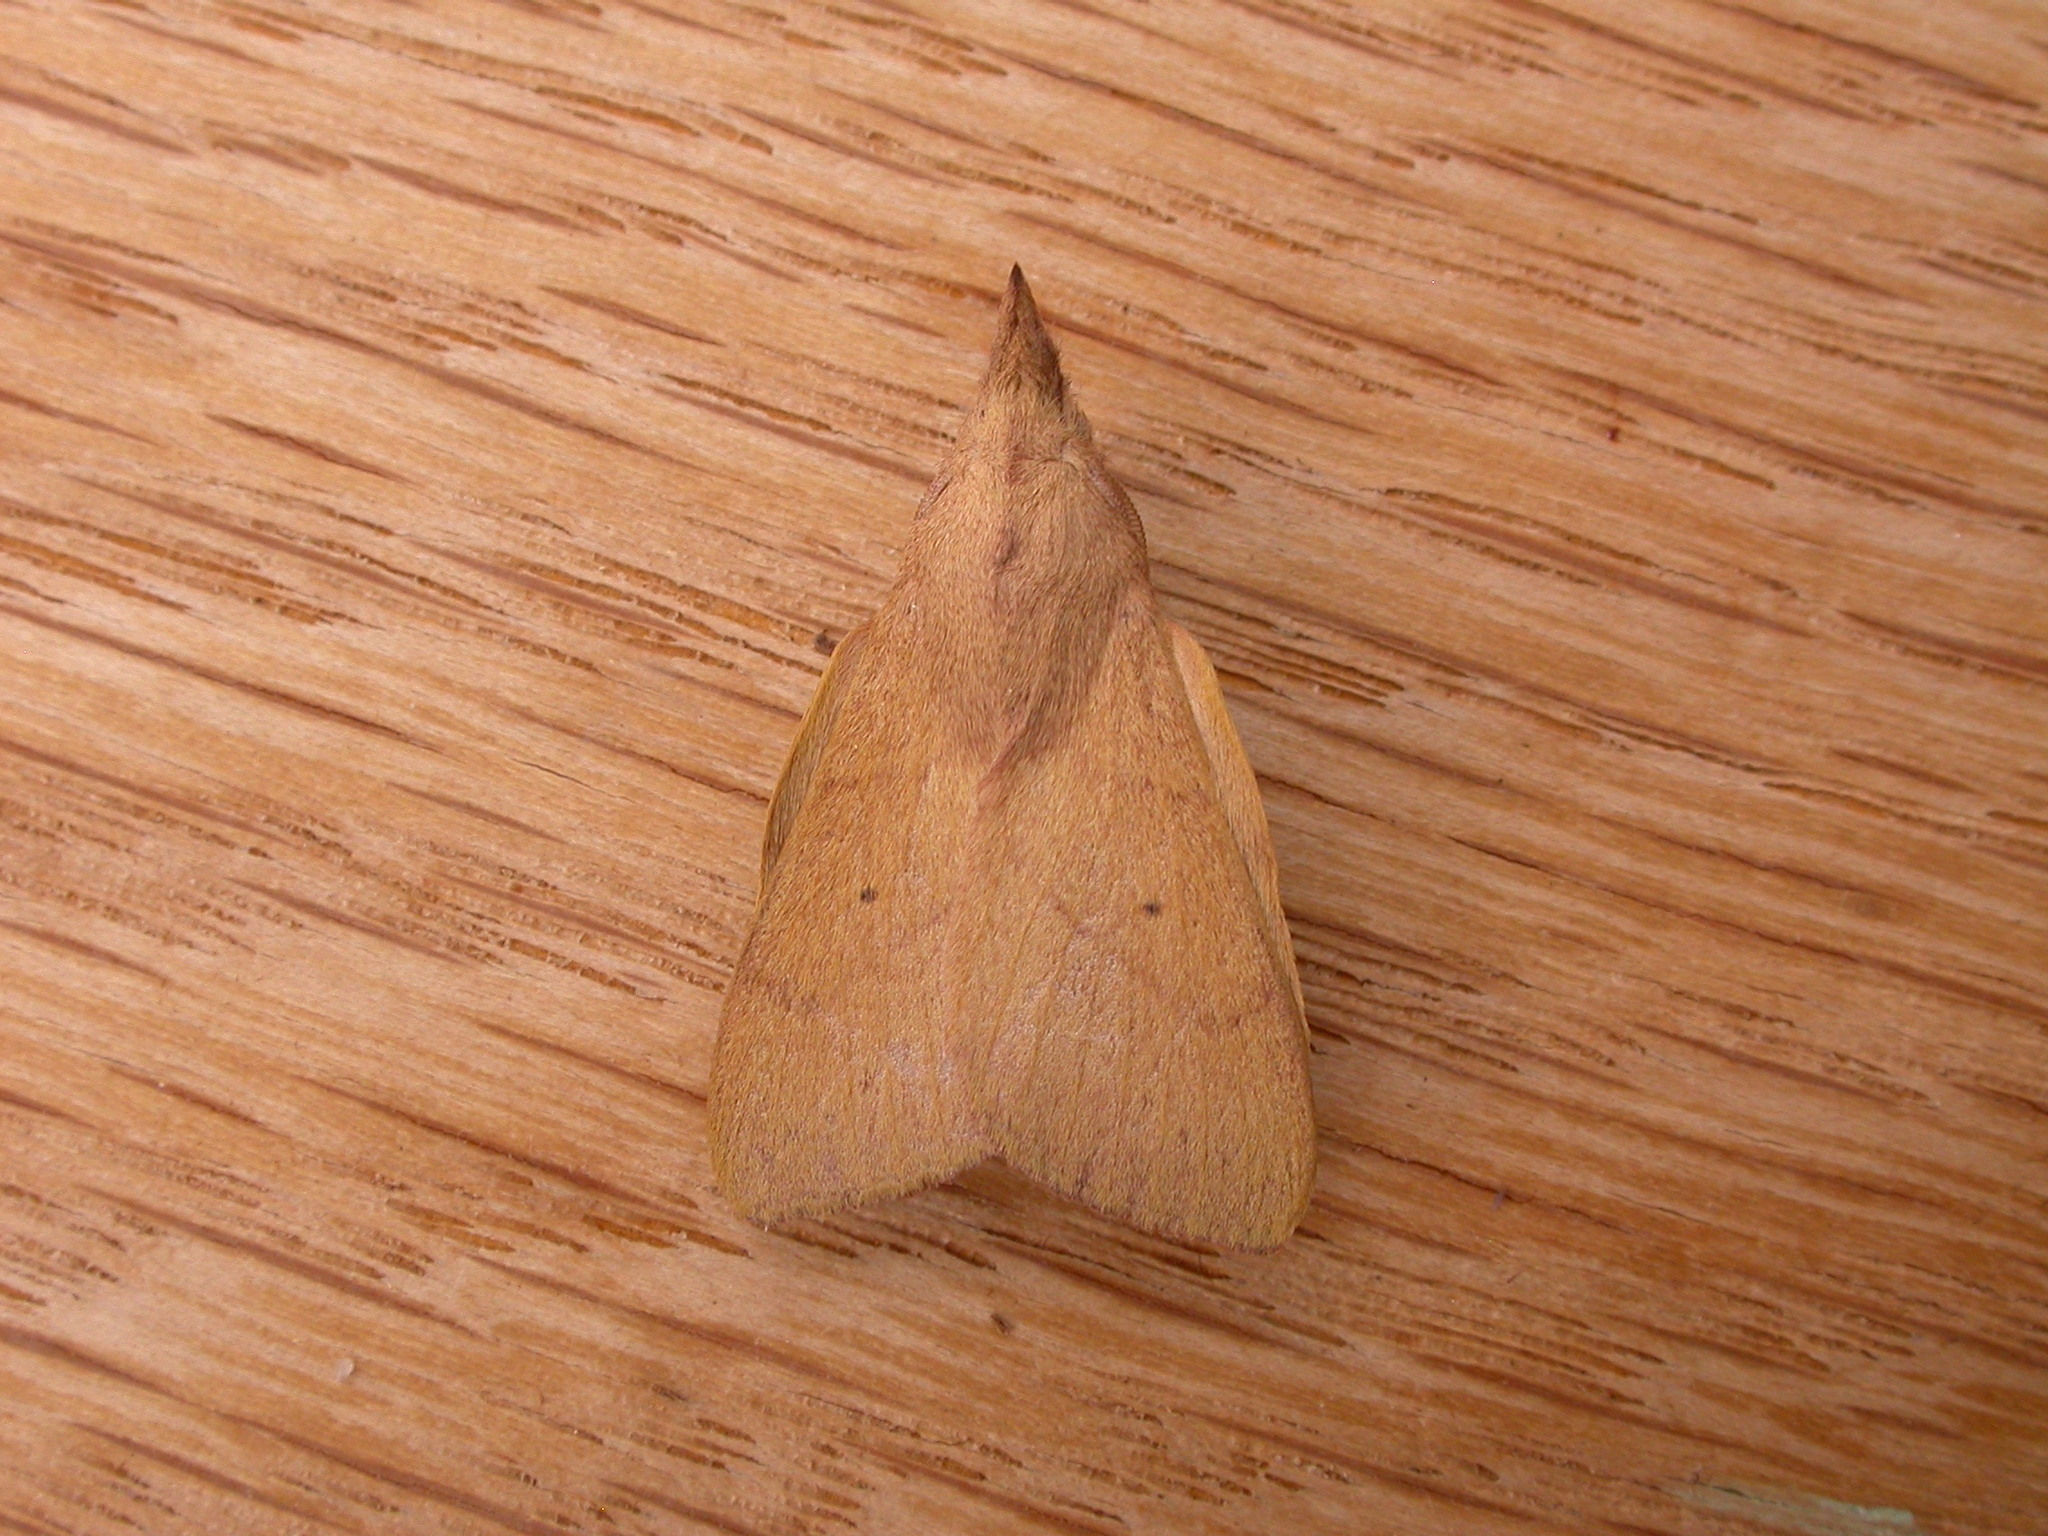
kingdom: Animalia
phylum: Arthropoda
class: Insecta
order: Lepidoptera
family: Lasiocampidae
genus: Pararguda
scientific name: Pararguda nasuta
